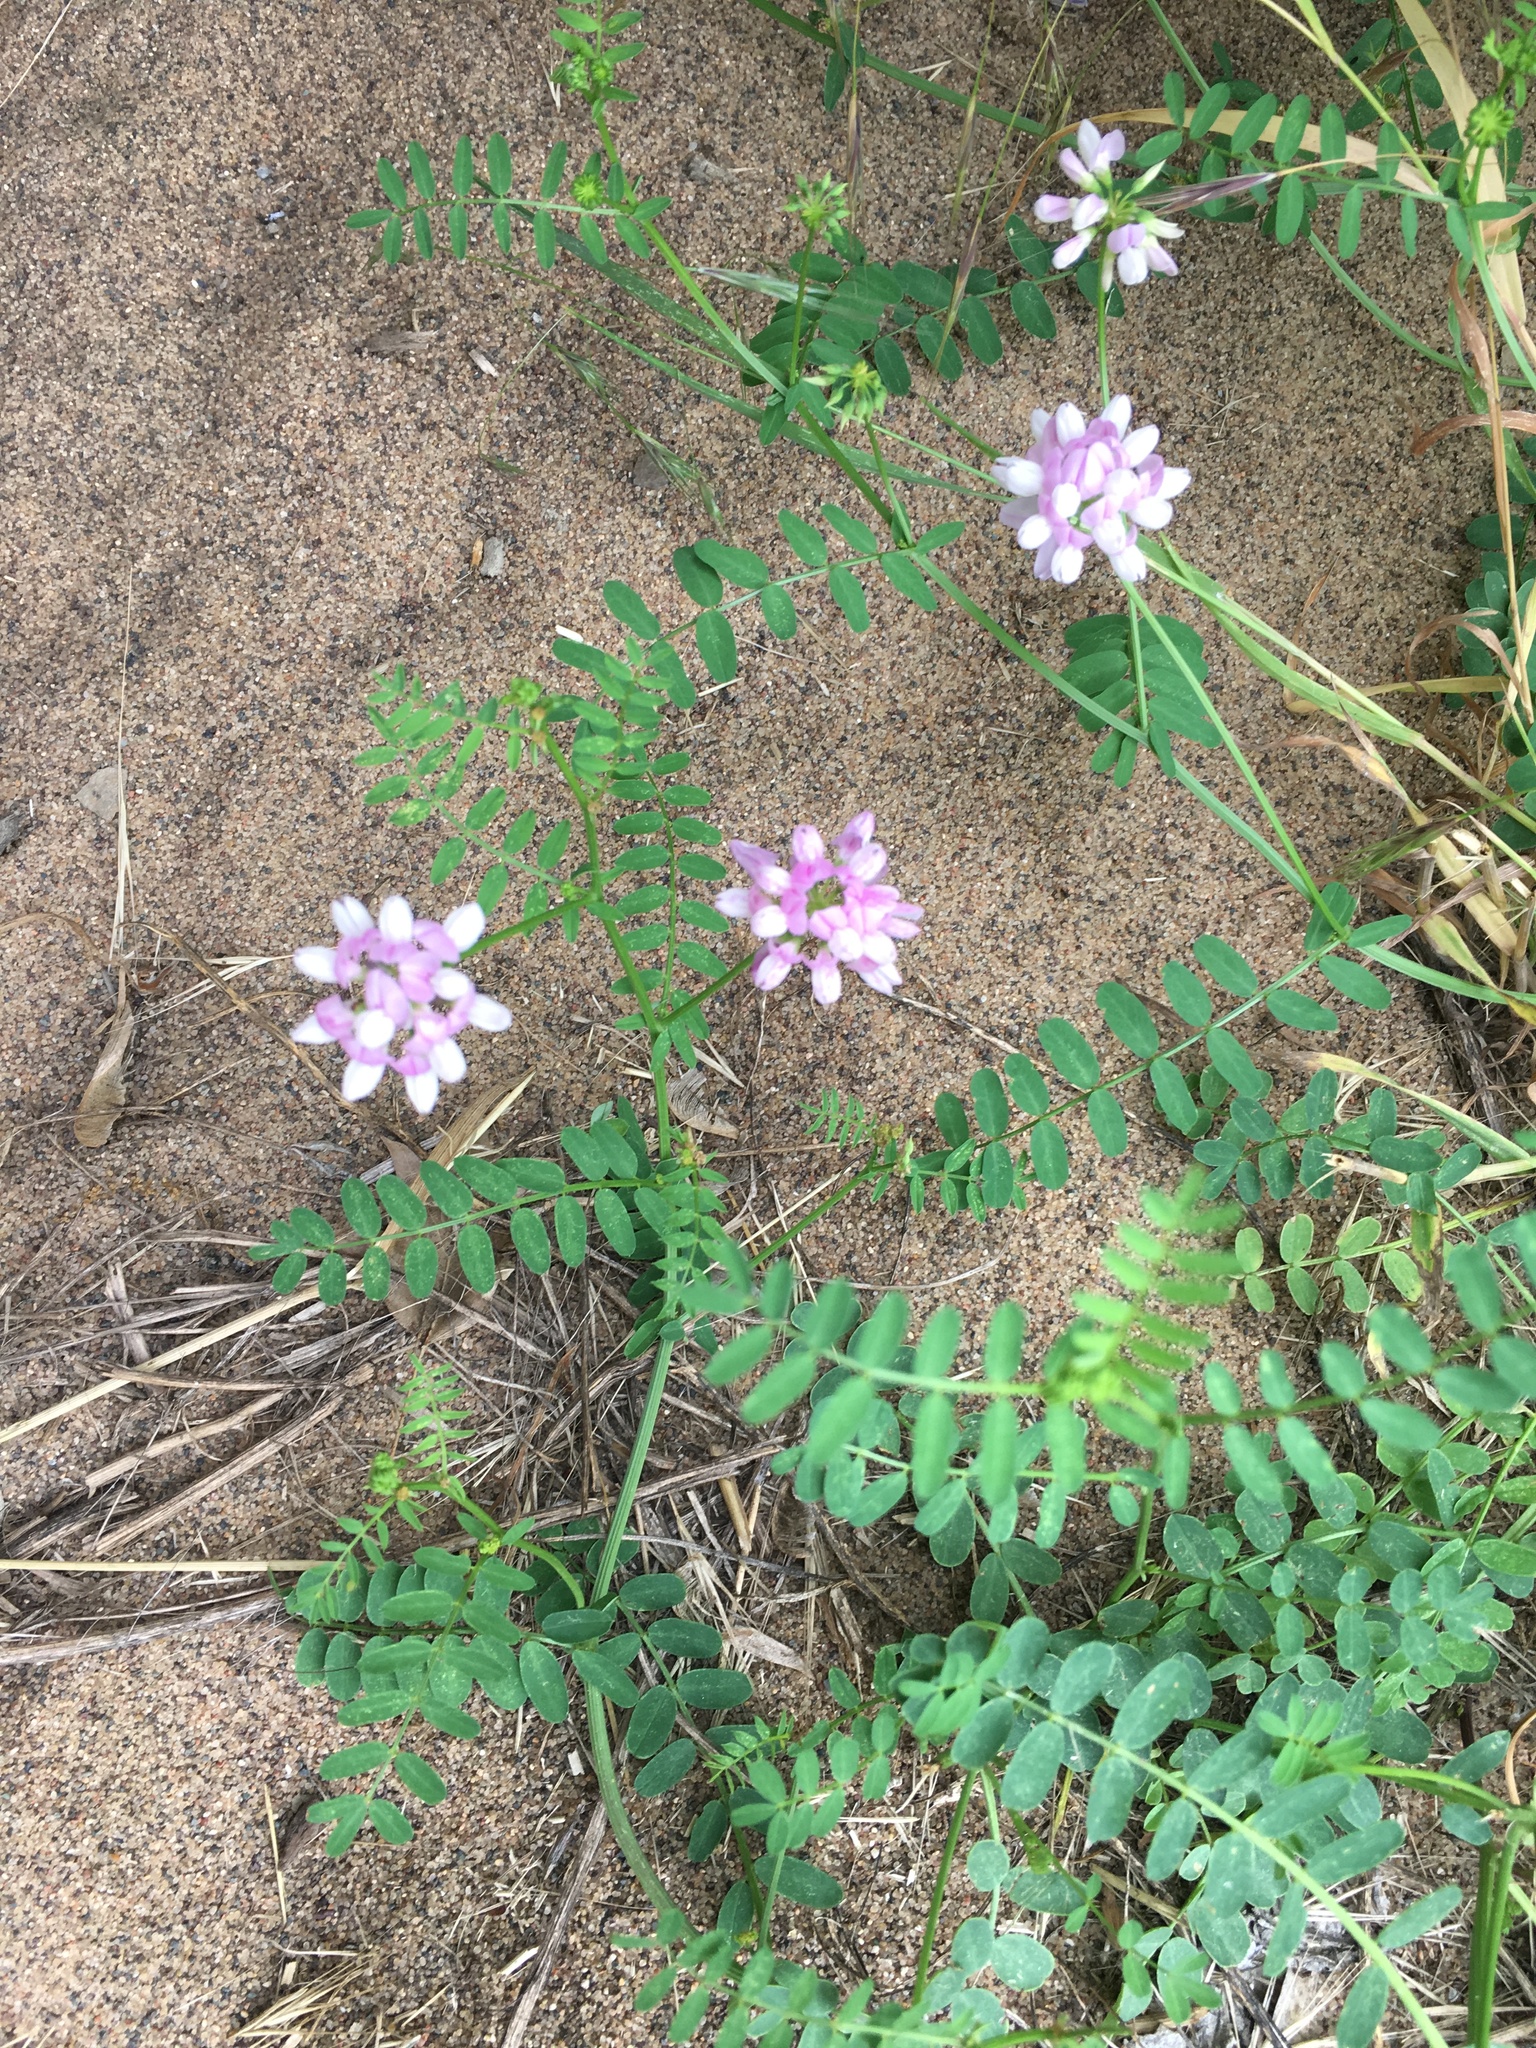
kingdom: Plantae
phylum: Tracheophyta
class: Magnoliopsida
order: Fabales
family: Fabaceae
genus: Coronilla
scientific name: Coronilla varia
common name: Crownvetch
